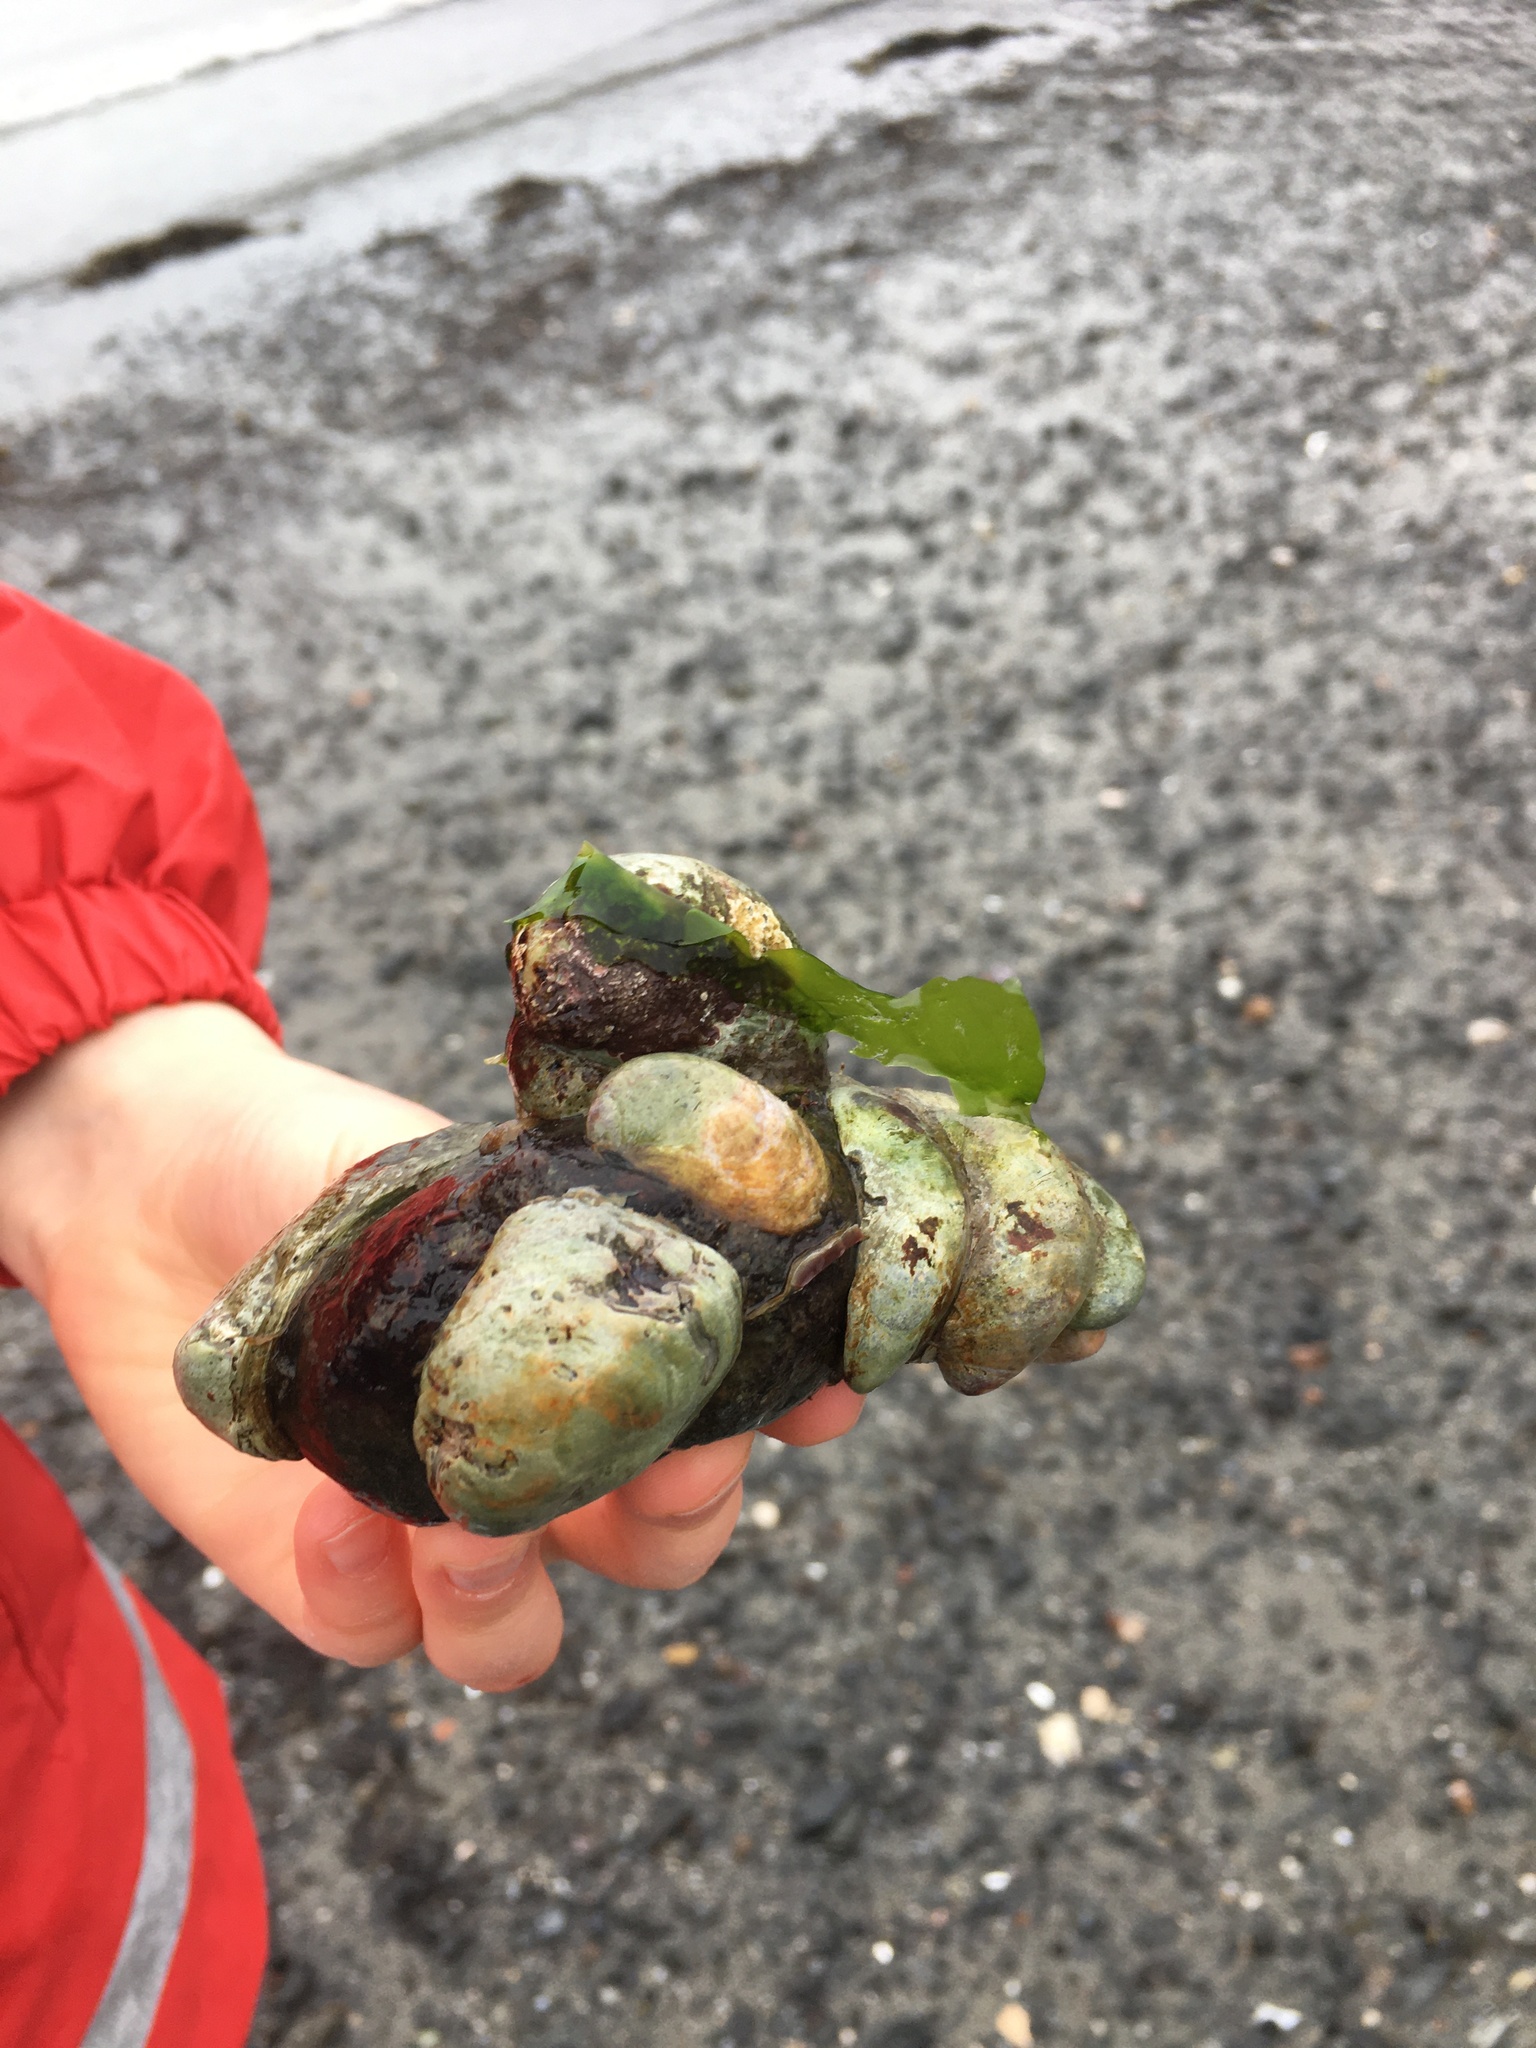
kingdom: Animalia
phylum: Mollusca
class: Gastropoda
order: Littorinimorpha
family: Calyptraeidae
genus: Crepidula
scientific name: Crepidula fornicata
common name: Slipper limpet
